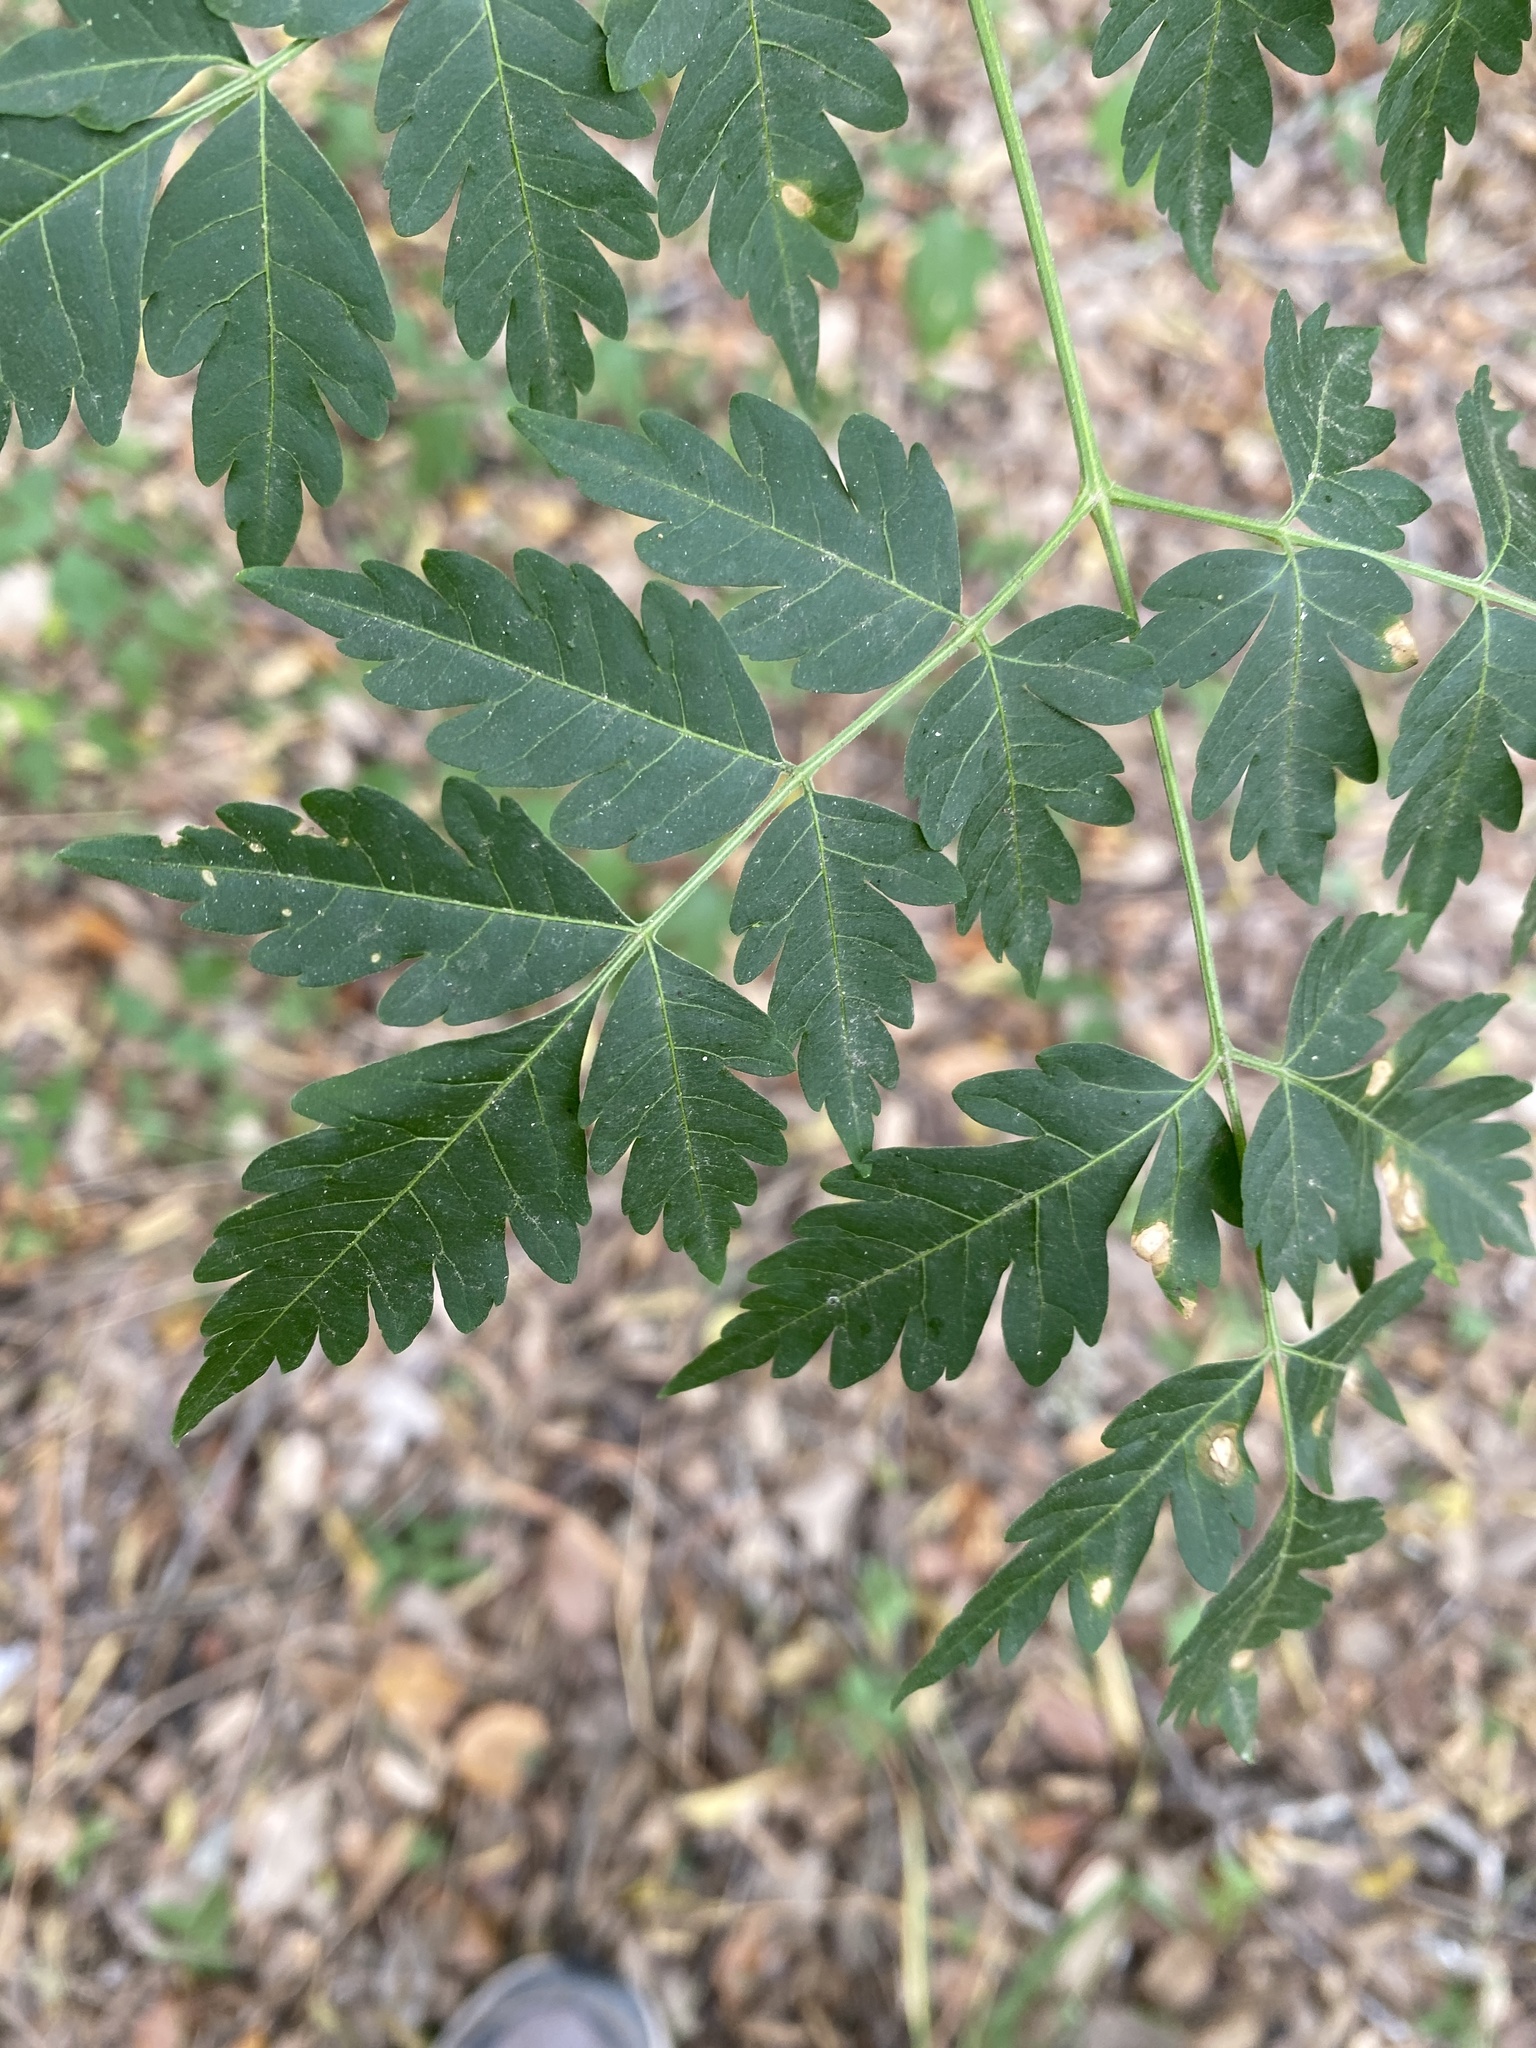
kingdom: Plantae
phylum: Tracheophyta
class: Magnoliopsida
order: Sapindales
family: Meliaceae
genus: Melia
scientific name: Melia azedarach
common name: Chinaberrytree
